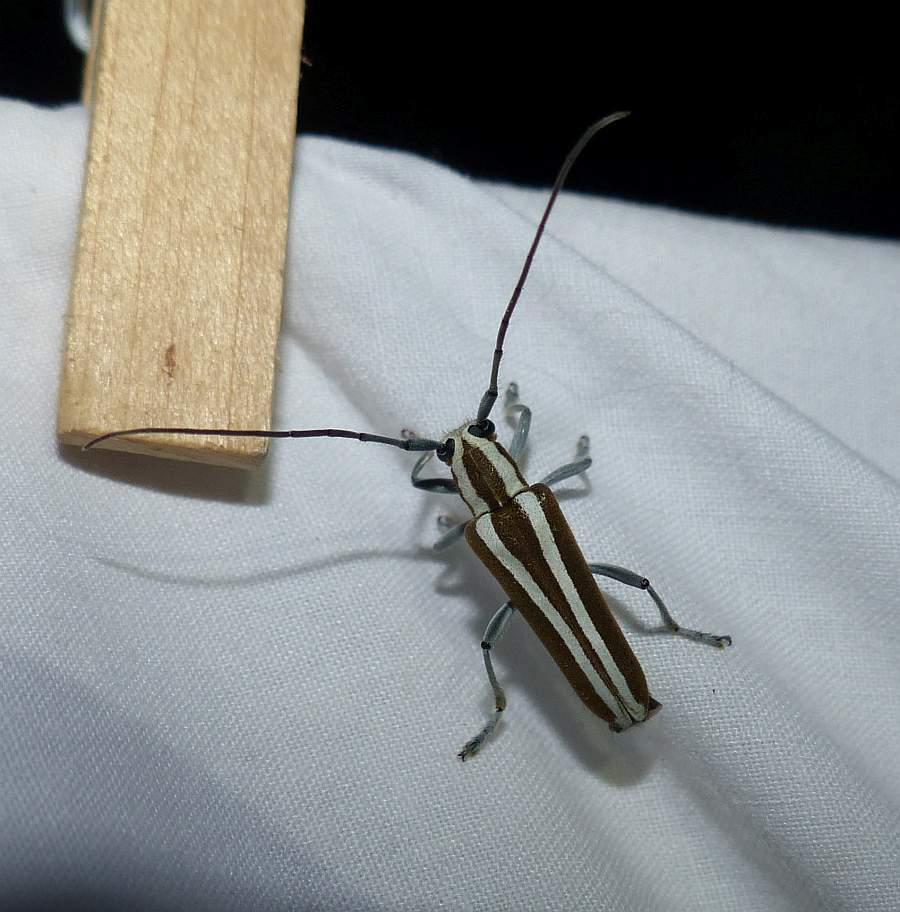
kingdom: Animalia
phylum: Arthropoda
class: Insecta
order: Coleoptera
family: Cerambycidae
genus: Saperda
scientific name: Saperda candida
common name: Round-headed borer
